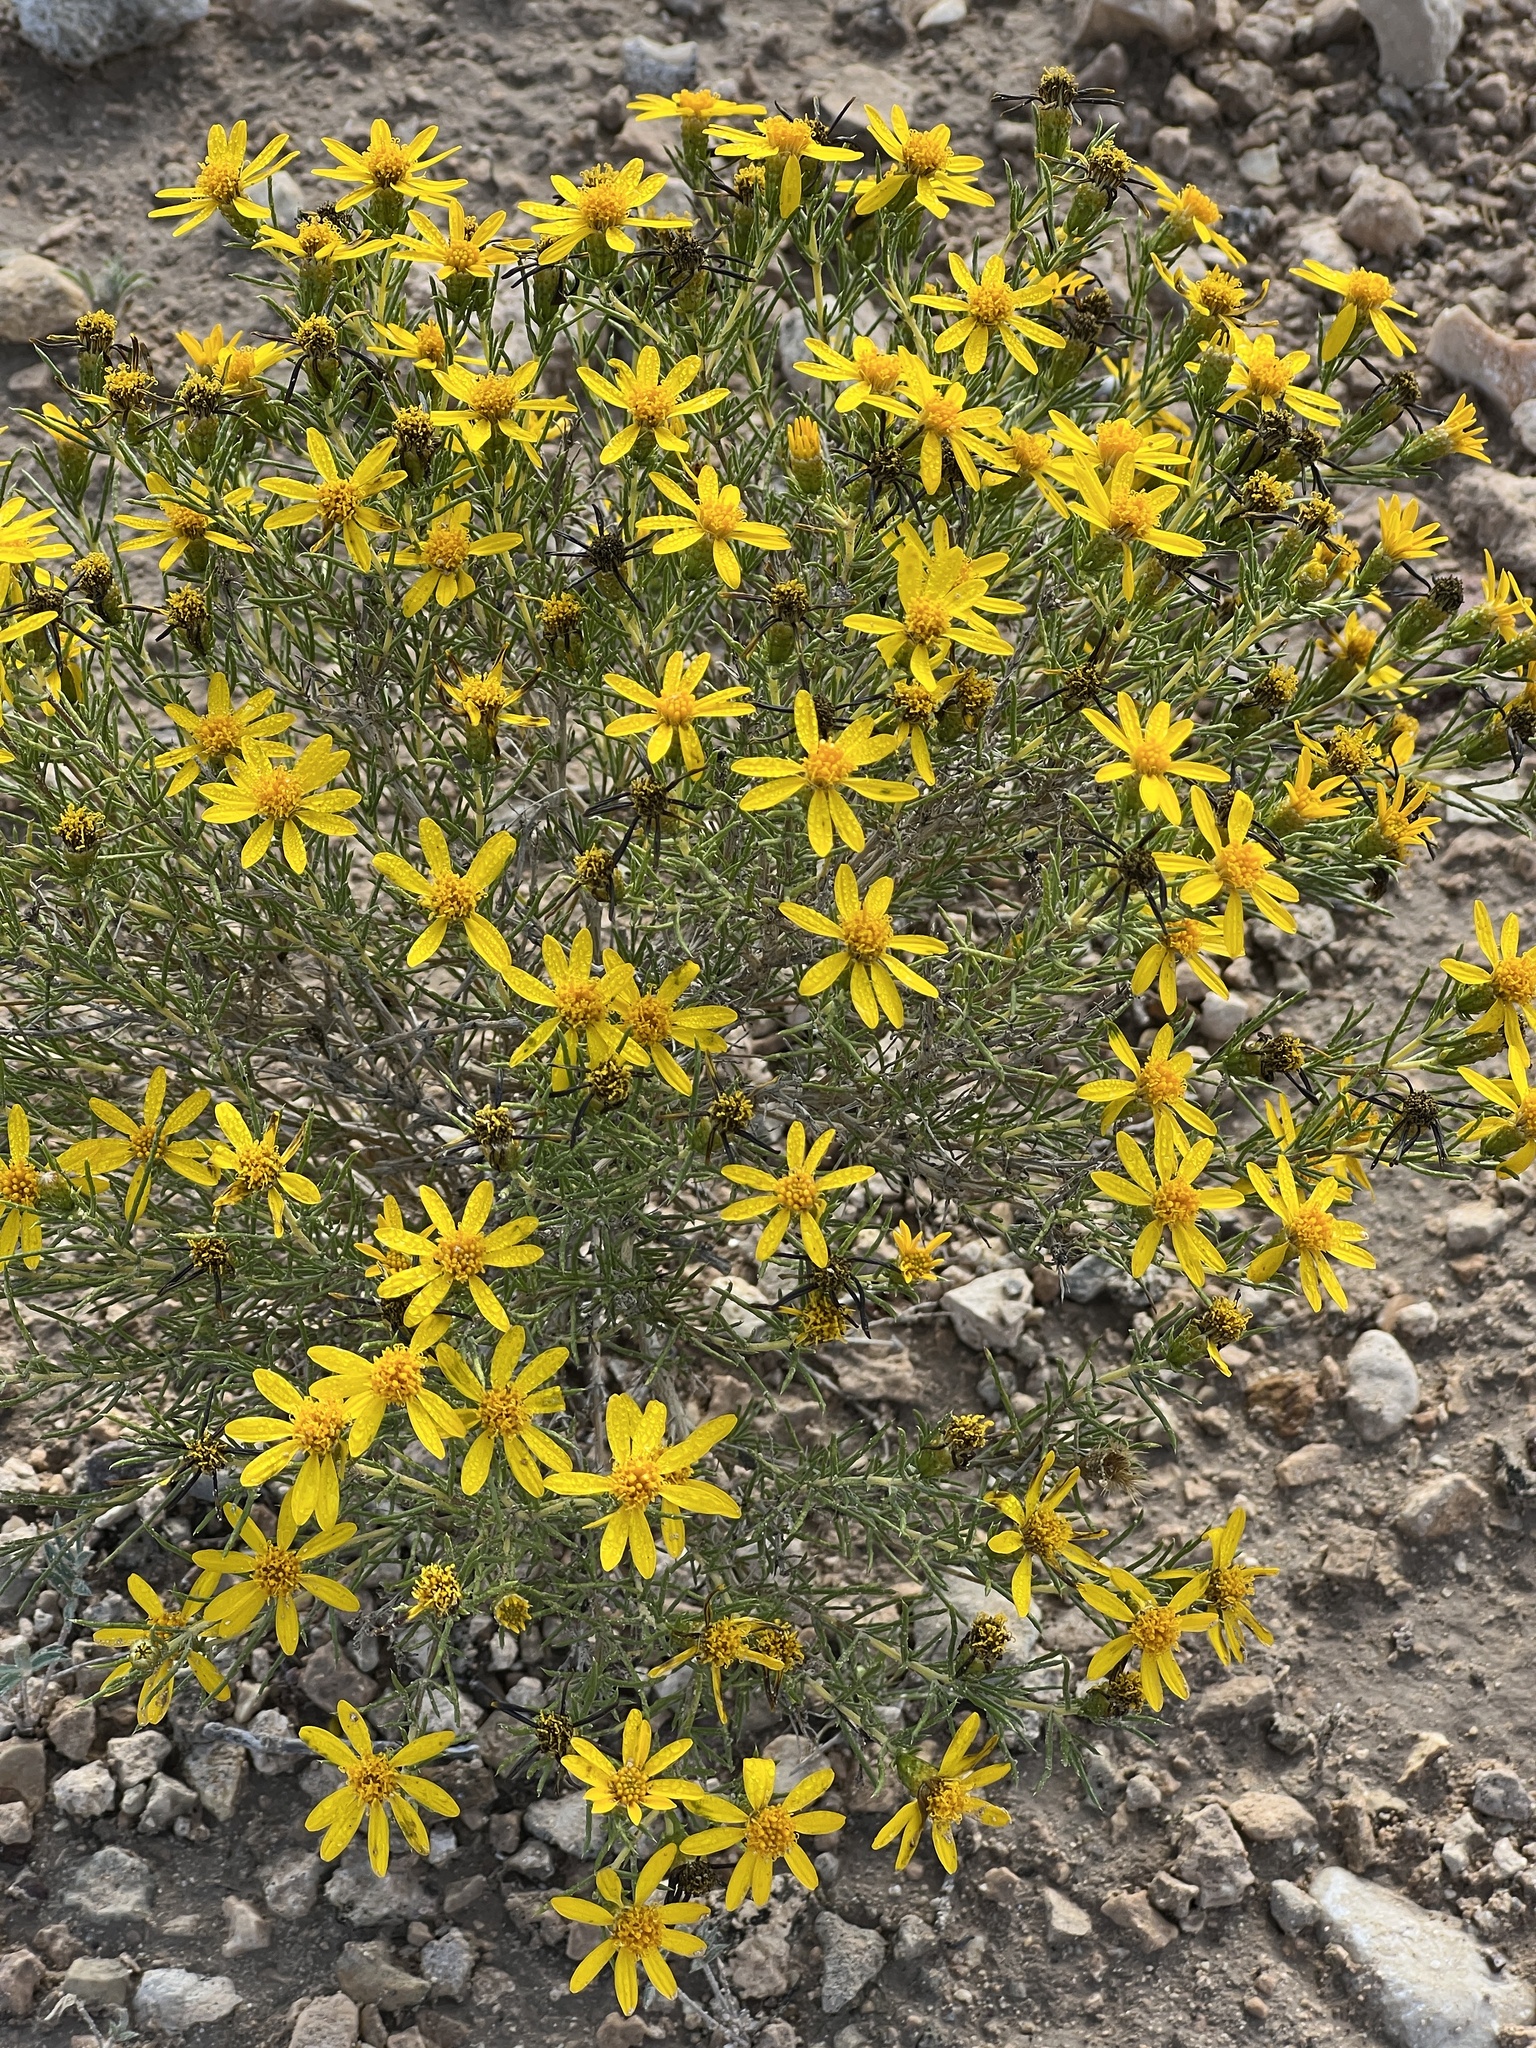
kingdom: Plantae
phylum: Tracheophyta
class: Magnoliopsida
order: Asterales
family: Asteraceae
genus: Thymophylla
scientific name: Thymophylla acerosa
